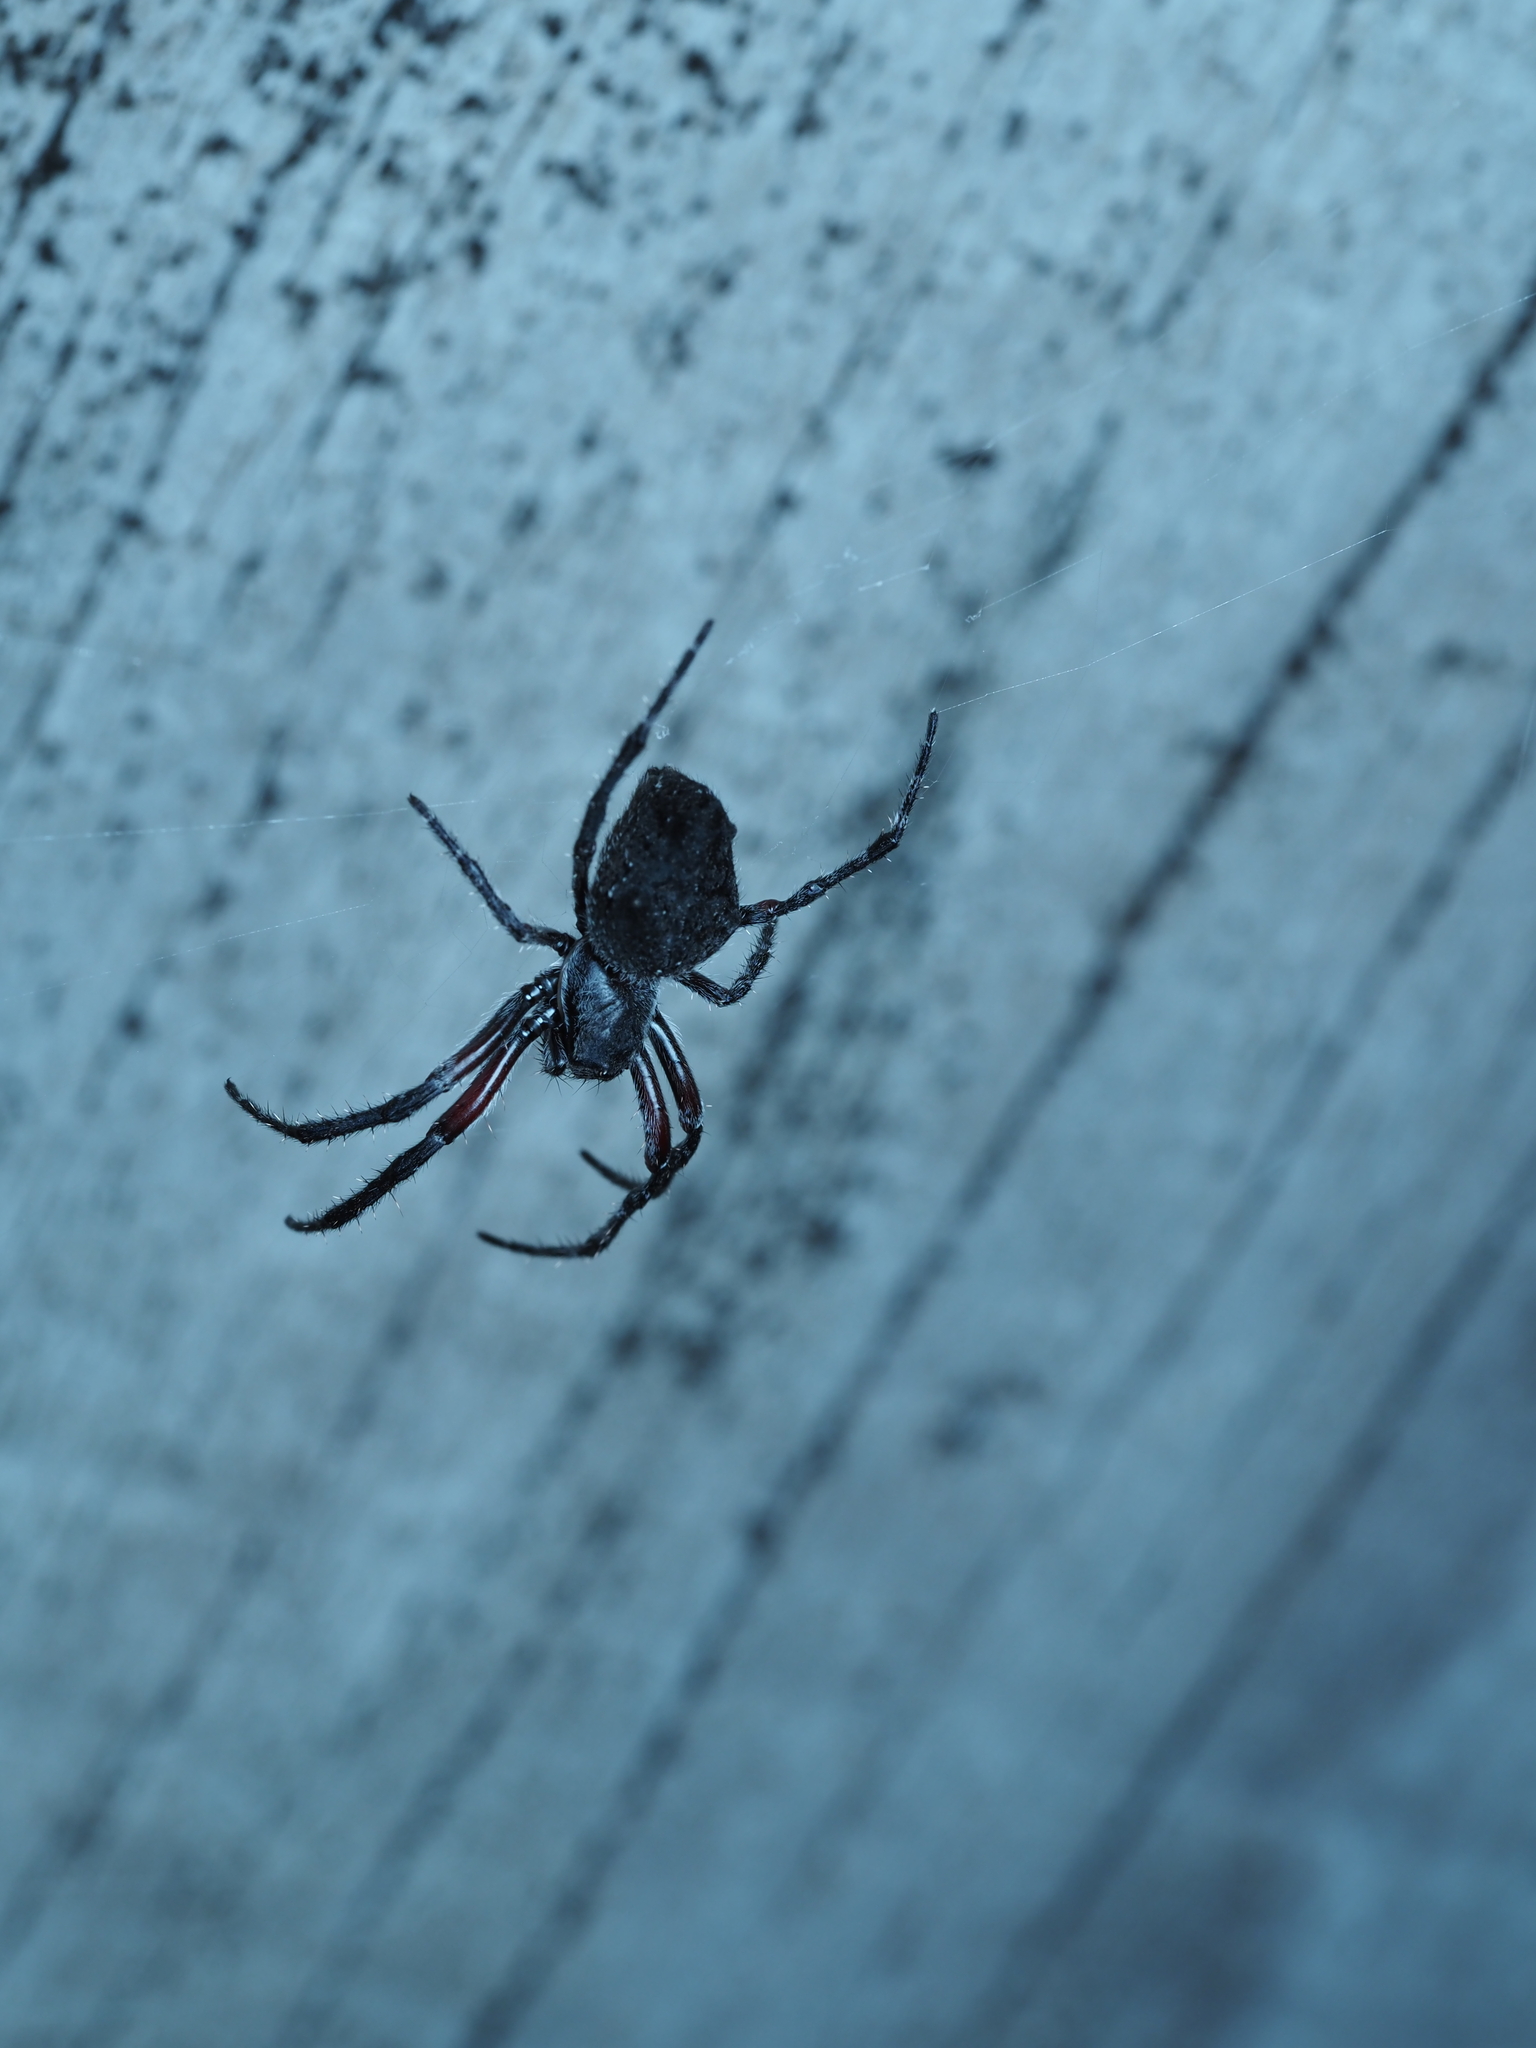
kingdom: Animalia
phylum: Arthropoda
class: Arachnida
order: Araneae
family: Araneidae
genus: Eriophora
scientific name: Eriophora pustulosa
